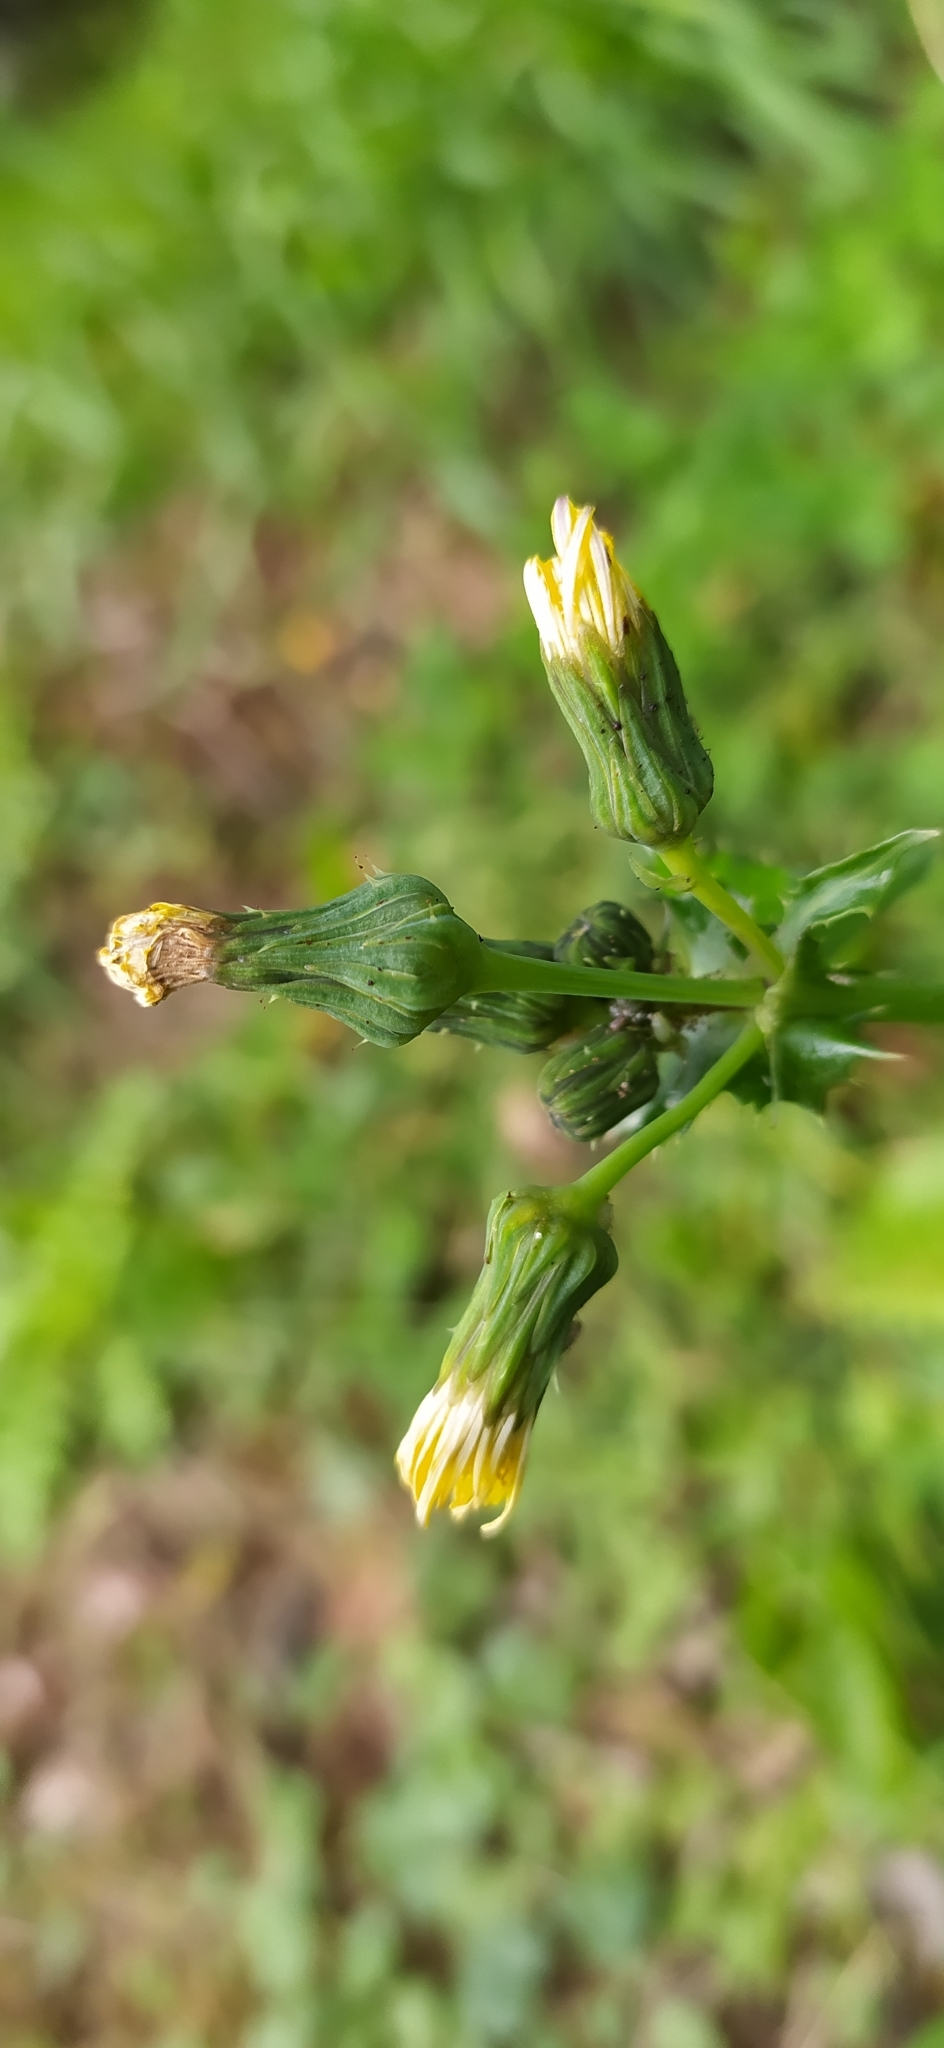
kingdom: Plantae
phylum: Tracheophyta
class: Magnoliopsida
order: Asterales
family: Asteraceae
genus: Sonchus
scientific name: Sonchus asper
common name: Prickly sow-thistle
